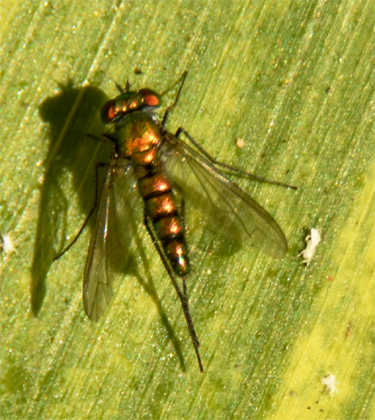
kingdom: Animalia
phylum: Arthropoda
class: Insecta
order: Diptera
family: Dolichopodidae
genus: Condylostylus
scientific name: Condylostylus longicornis
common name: Long-legged fly
